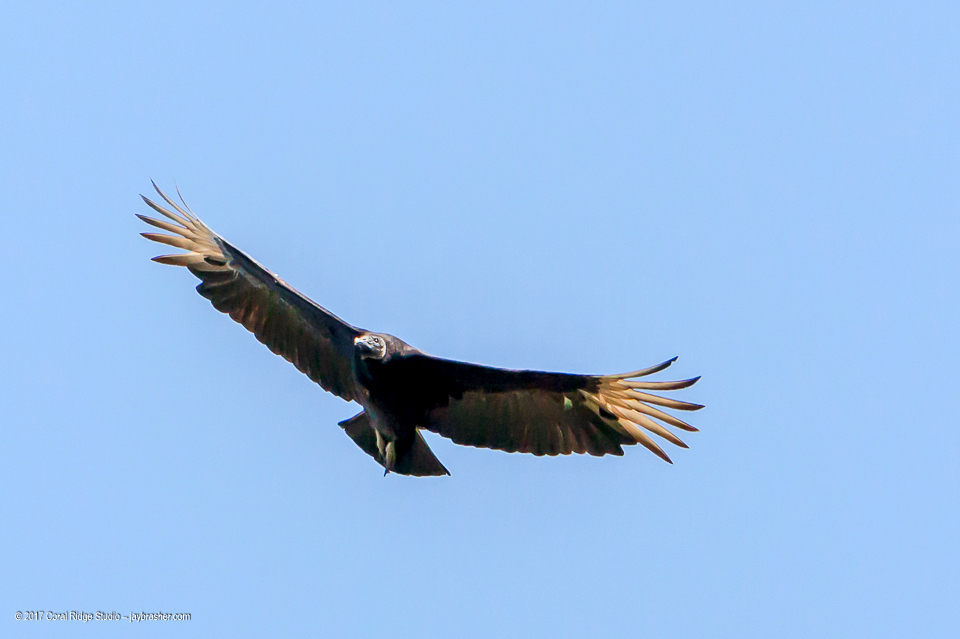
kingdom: Animalia
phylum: Chordata
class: Aves
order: Accipitriformes
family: Cathartidae
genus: Coragyps
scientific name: Coragyps atratus
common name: Black vulture
